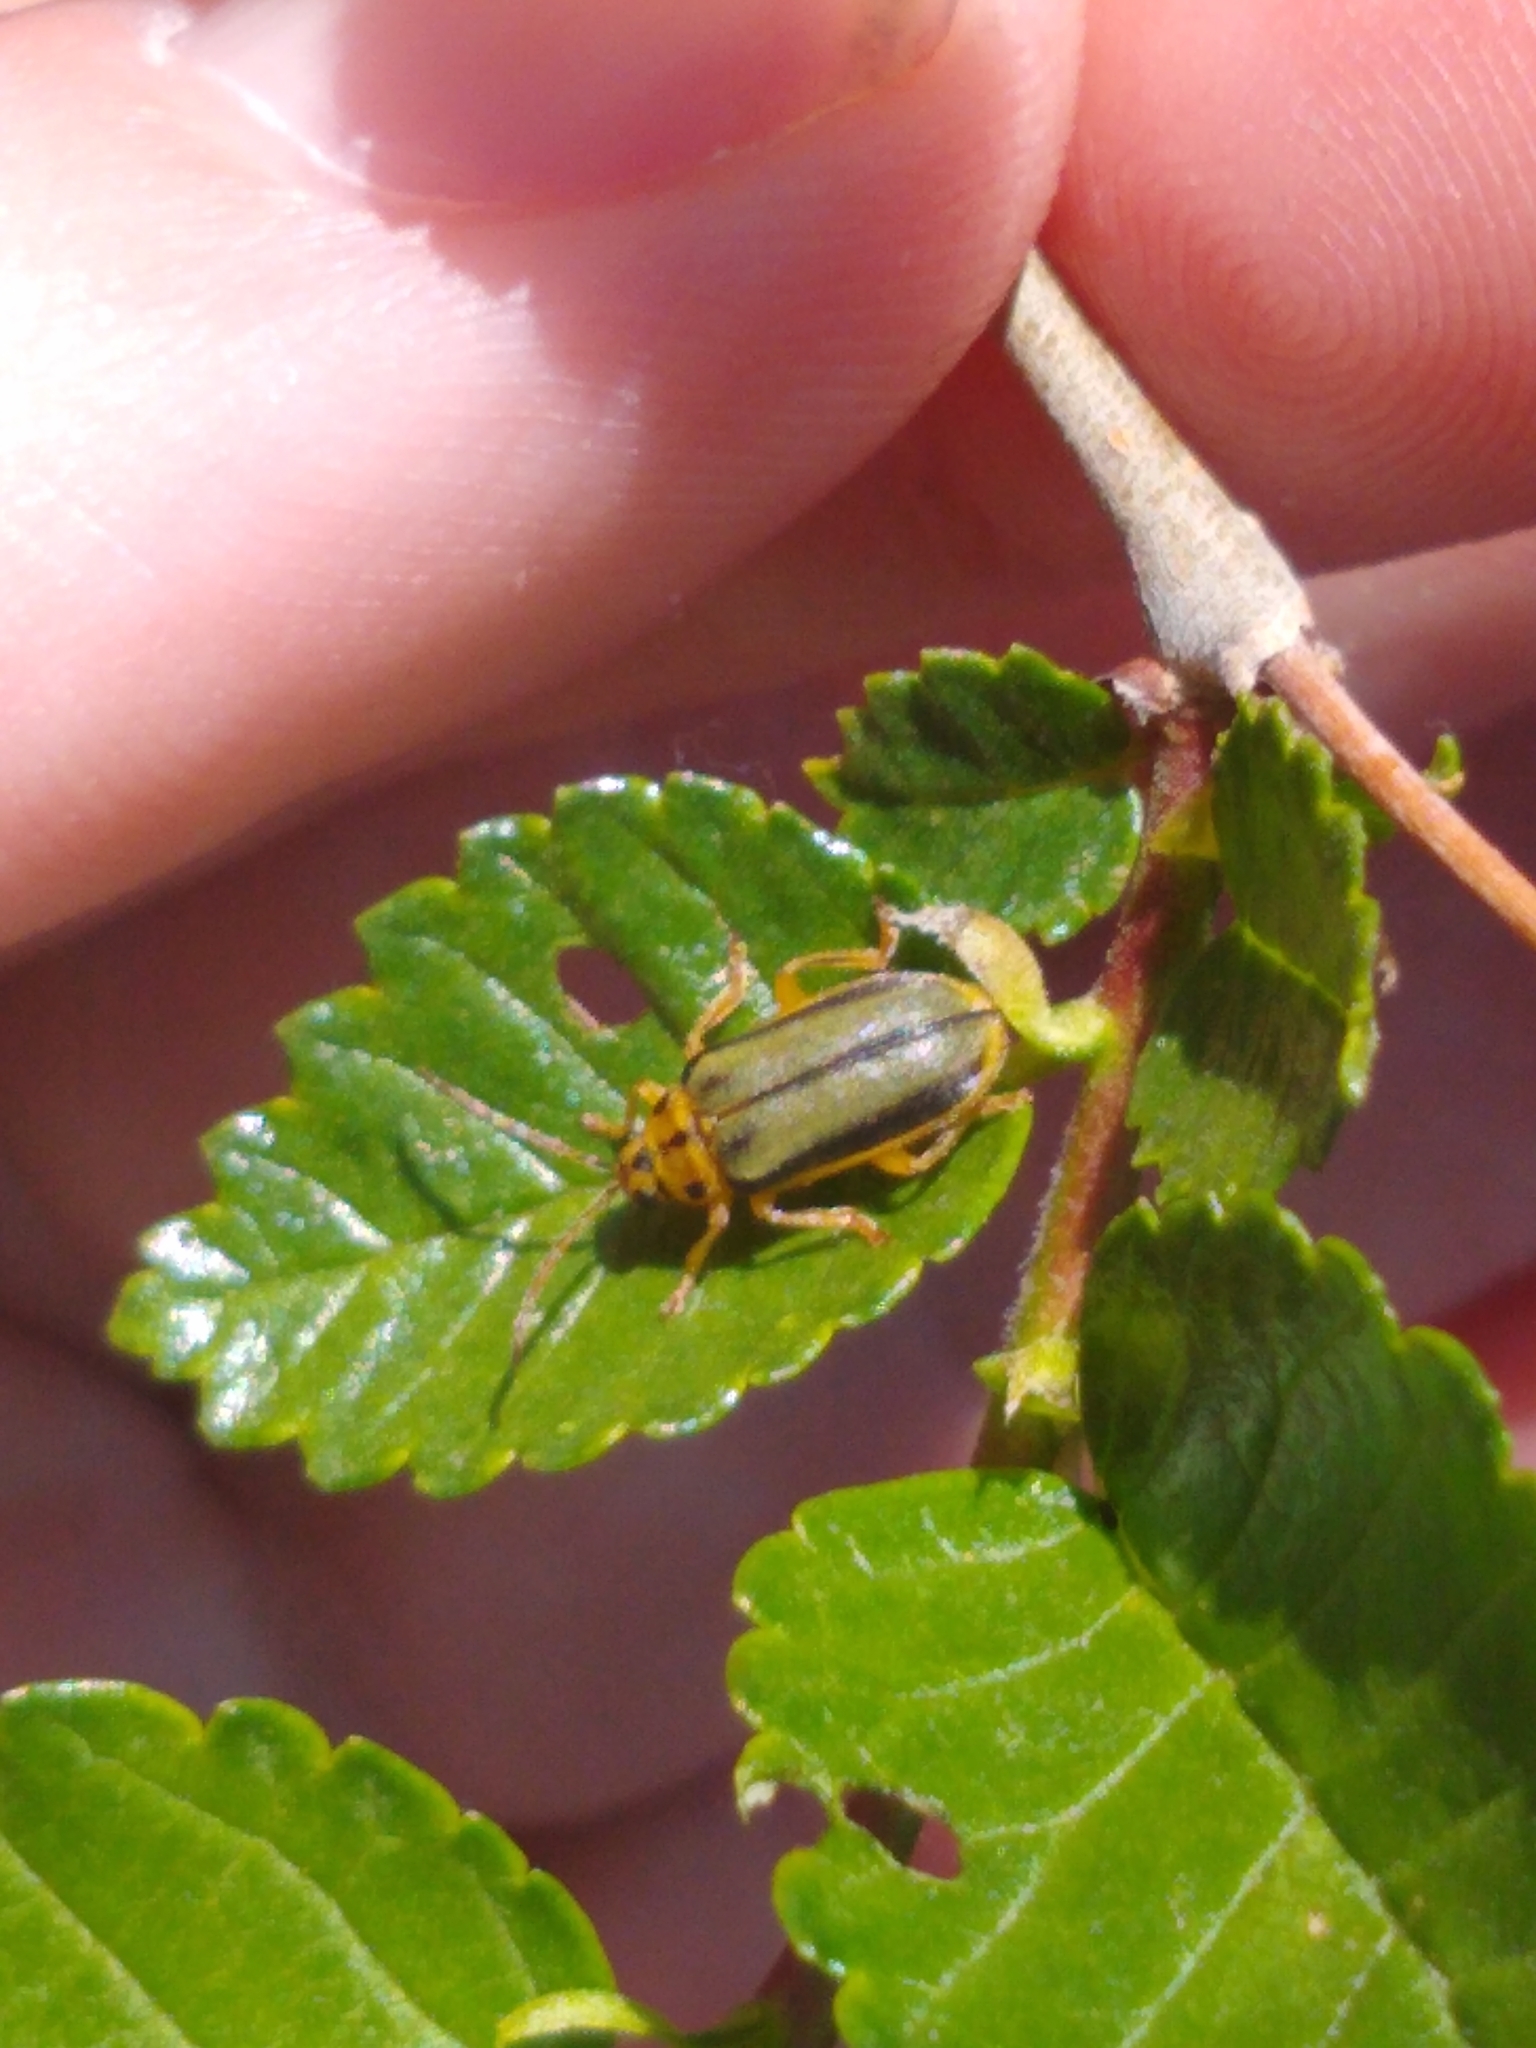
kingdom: Animalia
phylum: Arthropoda
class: Insecta
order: Coleoptera
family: Chrysomelidae
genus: Xanthogaleruca
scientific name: Xanthogaleruca luteola
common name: Elm leaf beetle
